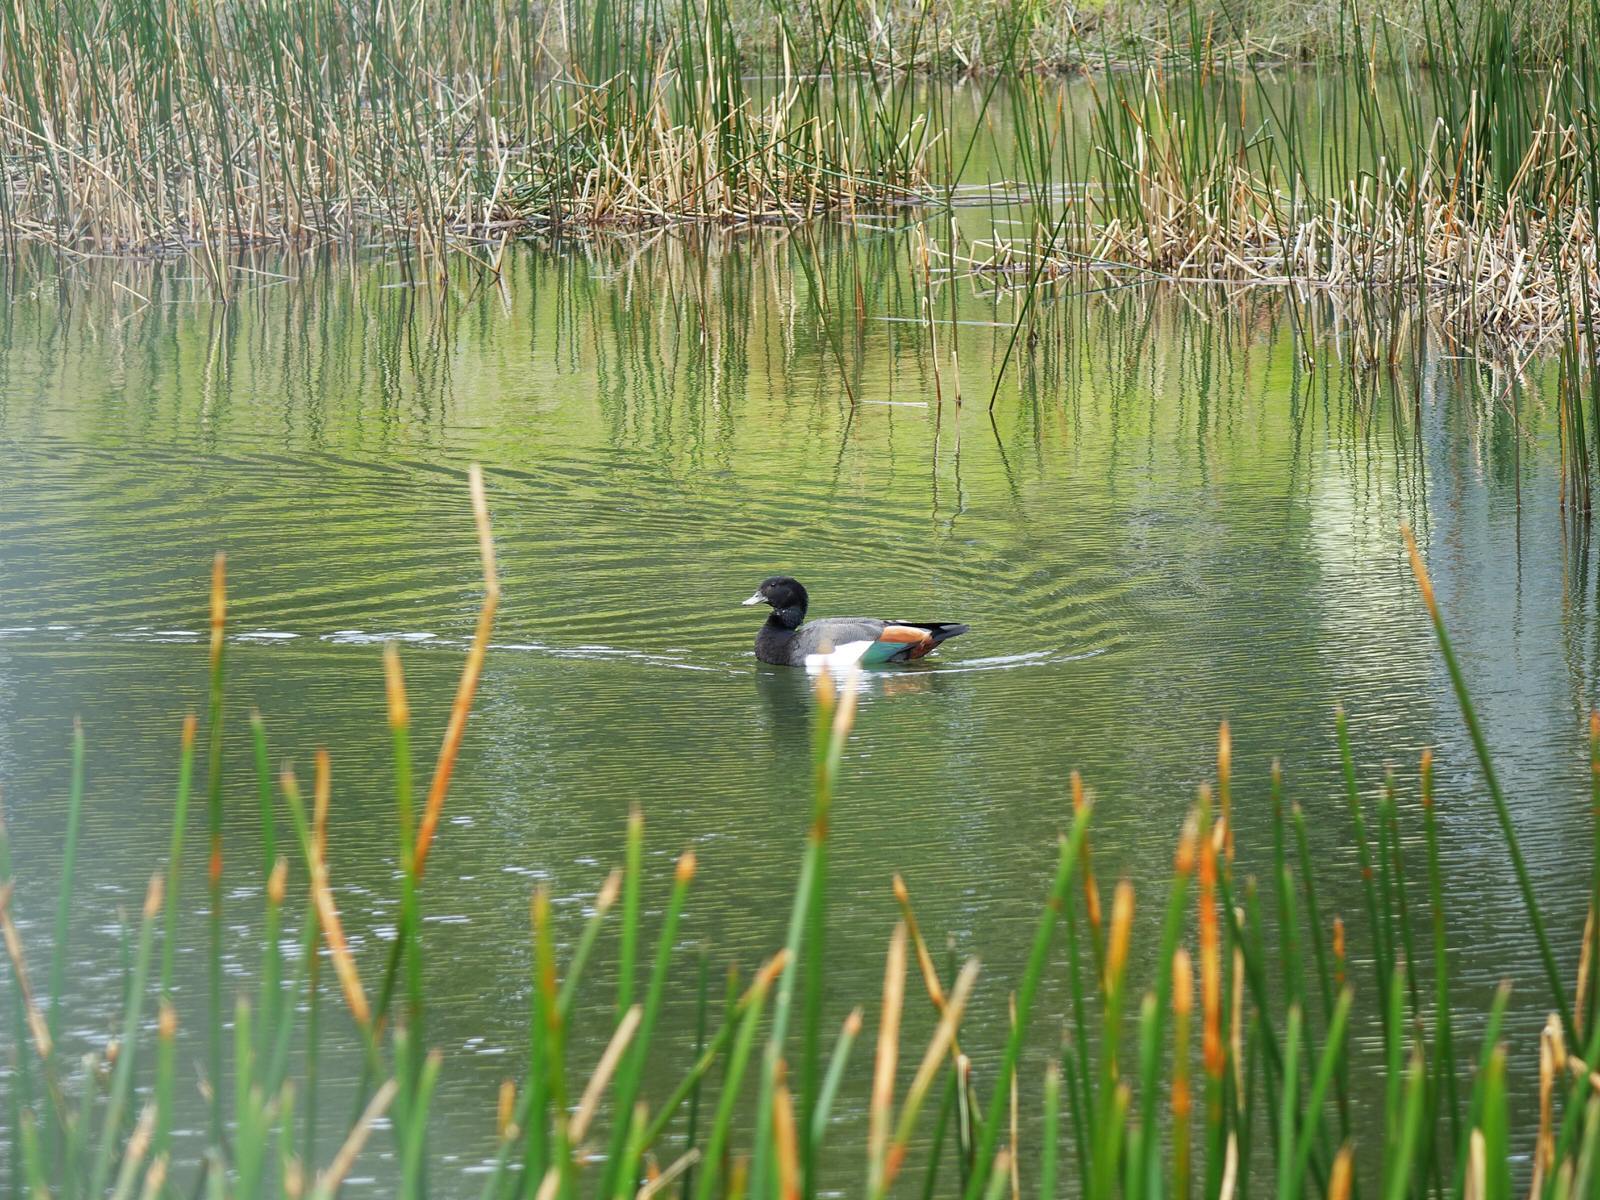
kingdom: Animalia
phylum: Chordata
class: Aves
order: Anseriformes
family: Anatidae
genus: Tadorna
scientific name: Tadorna variegata
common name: Paradise shelduck
